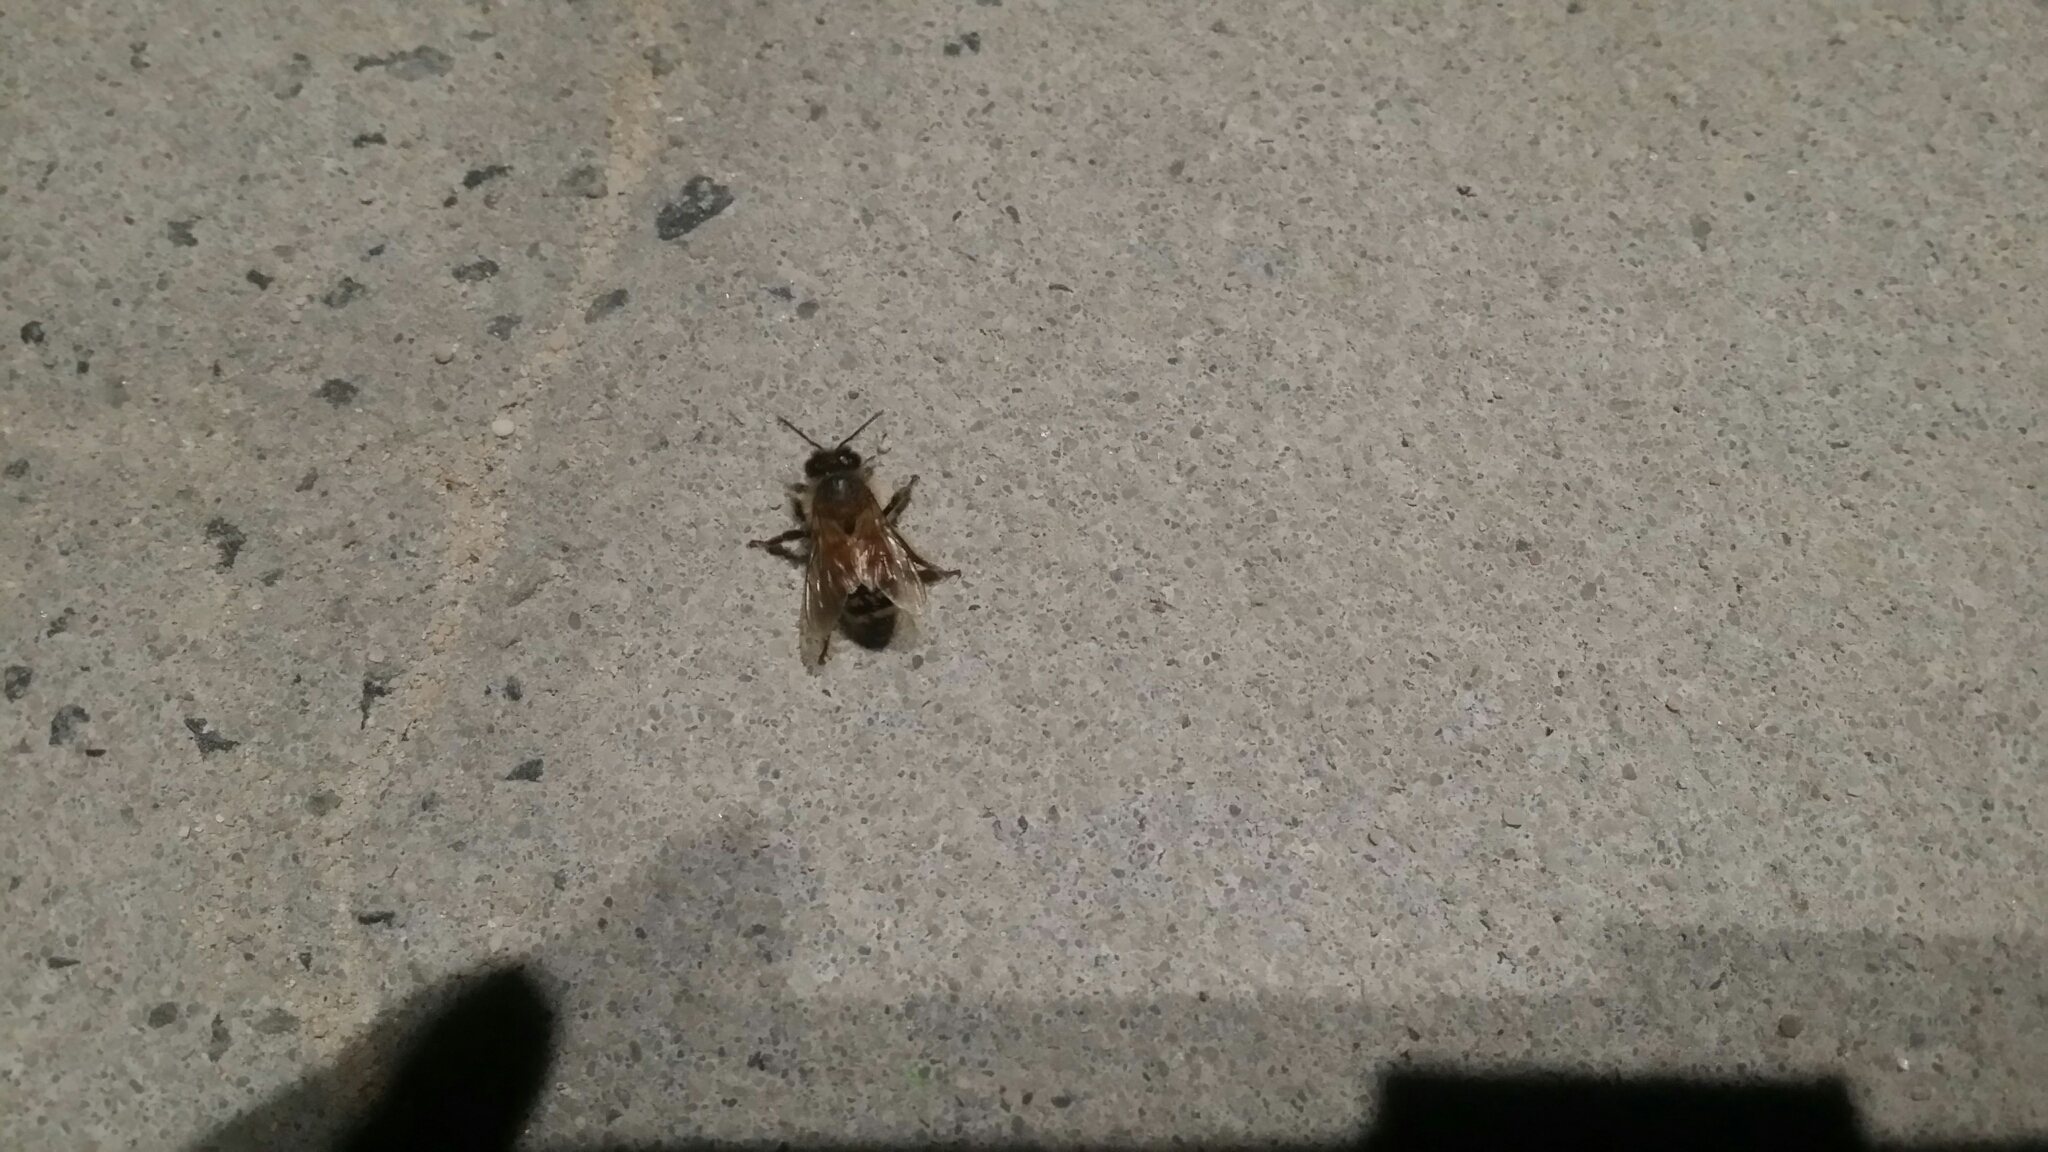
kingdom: Animalia
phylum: Arthropoda
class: Insecta
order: Hymenoptera
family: Apidae
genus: Apis
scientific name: Apis mellifera
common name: Honey bee
